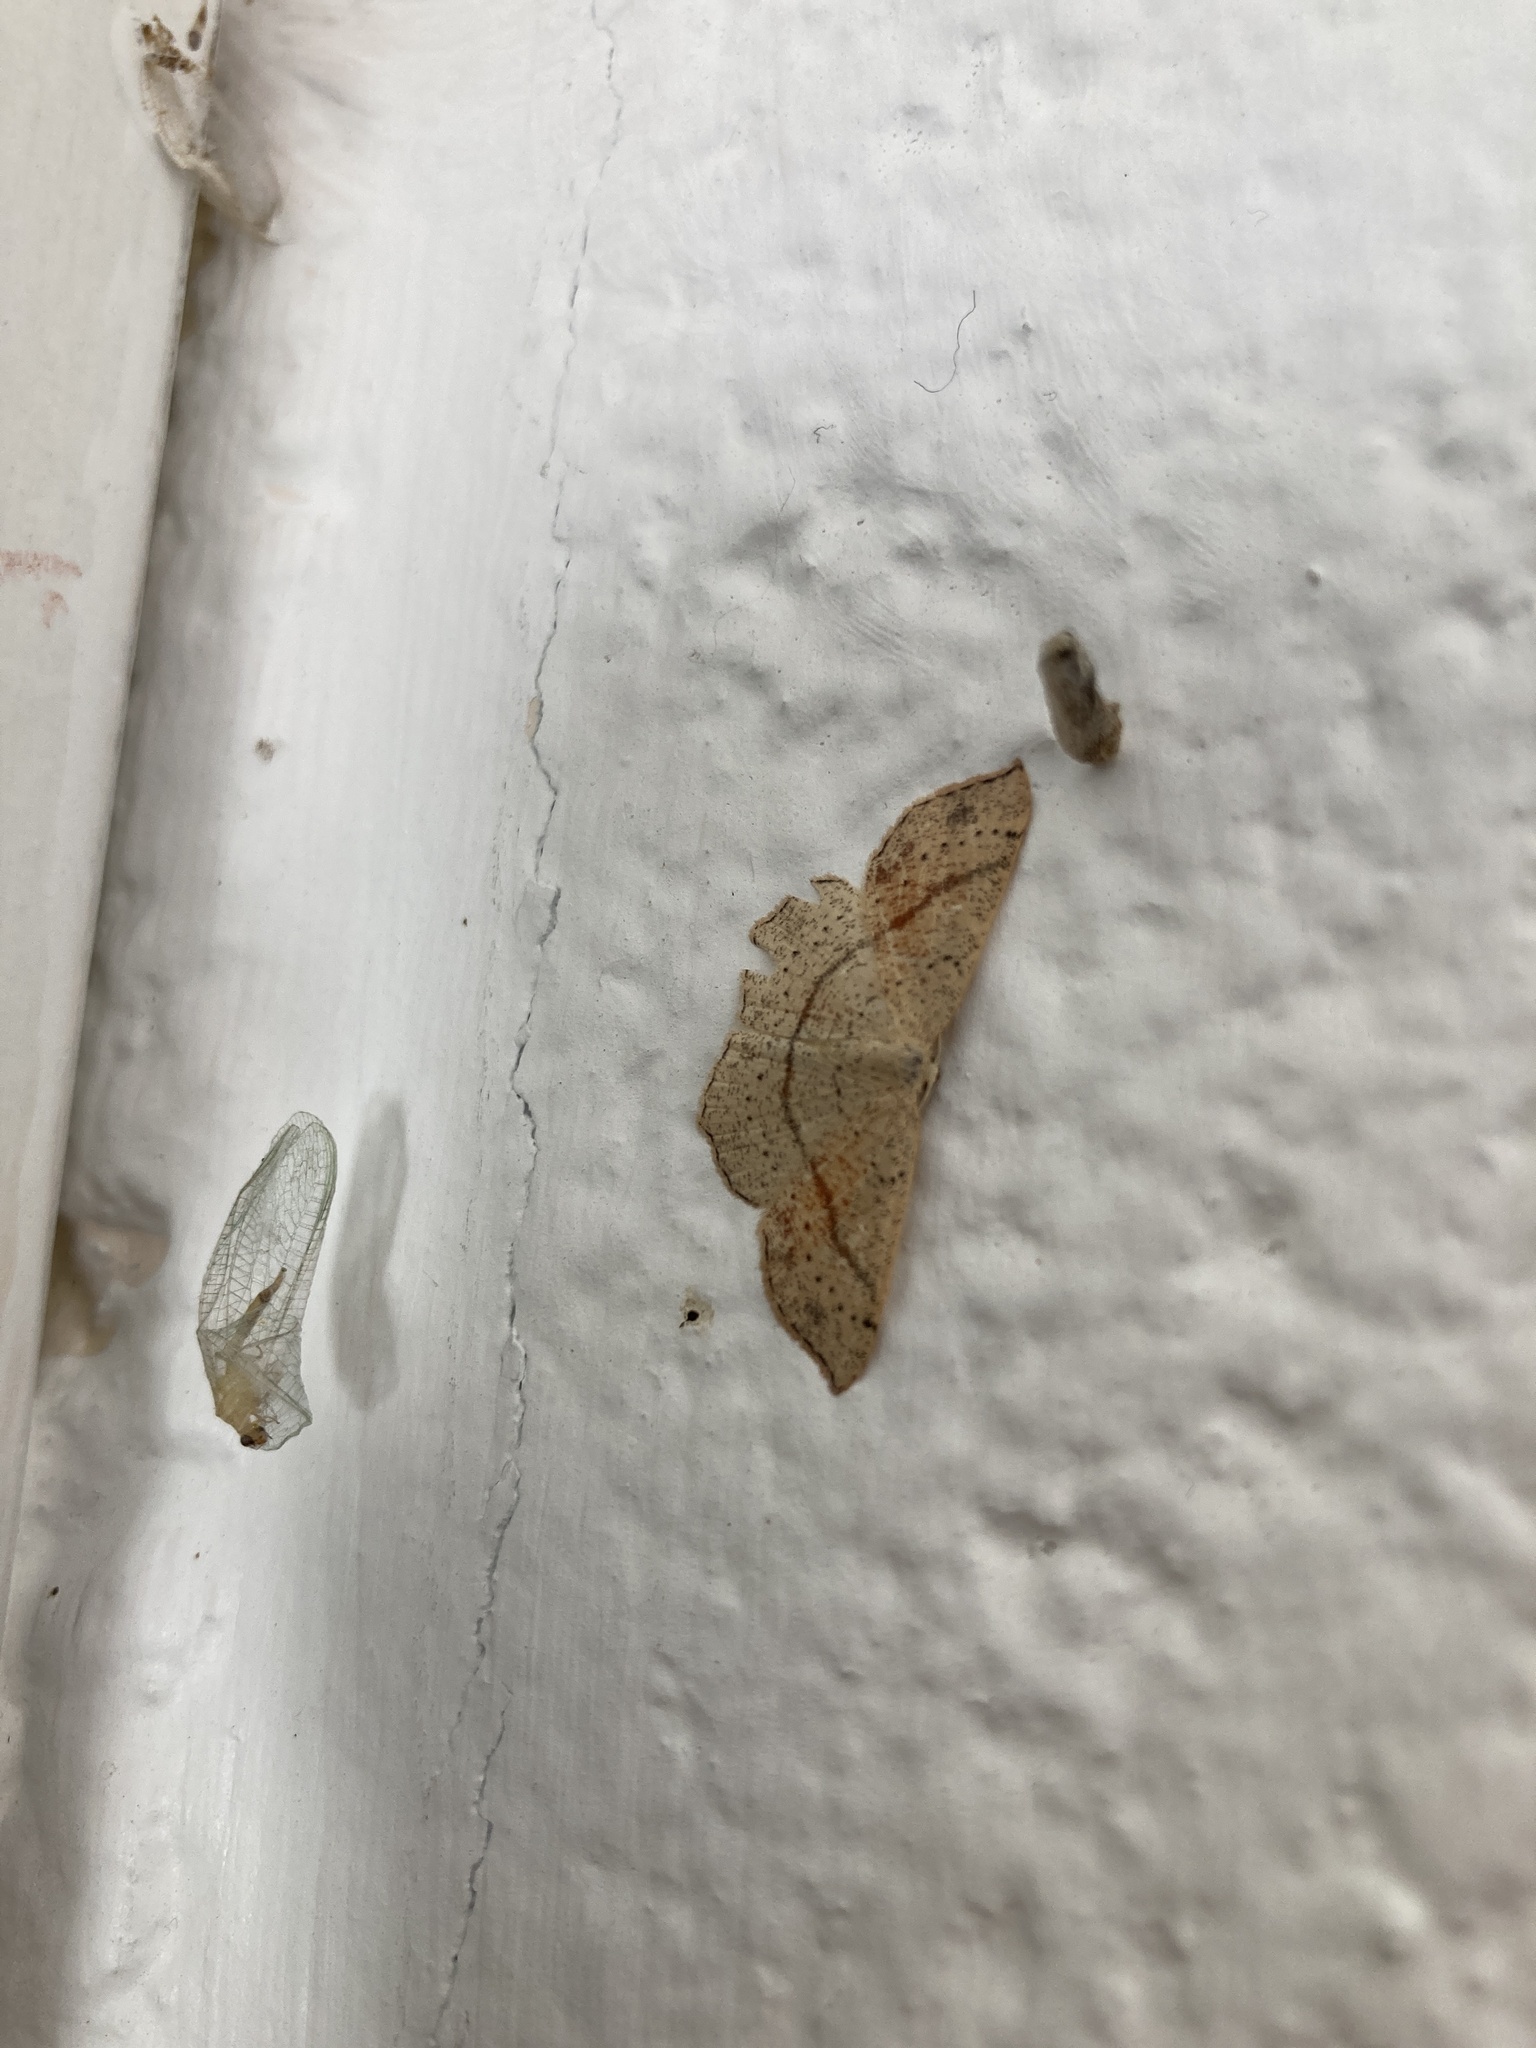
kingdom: Animalia
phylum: Arthropoda
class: Insecta
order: Lepidoptera
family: Geometridae
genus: Cyclophora
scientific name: Cyclophora punctaria
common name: Maiden's blush
